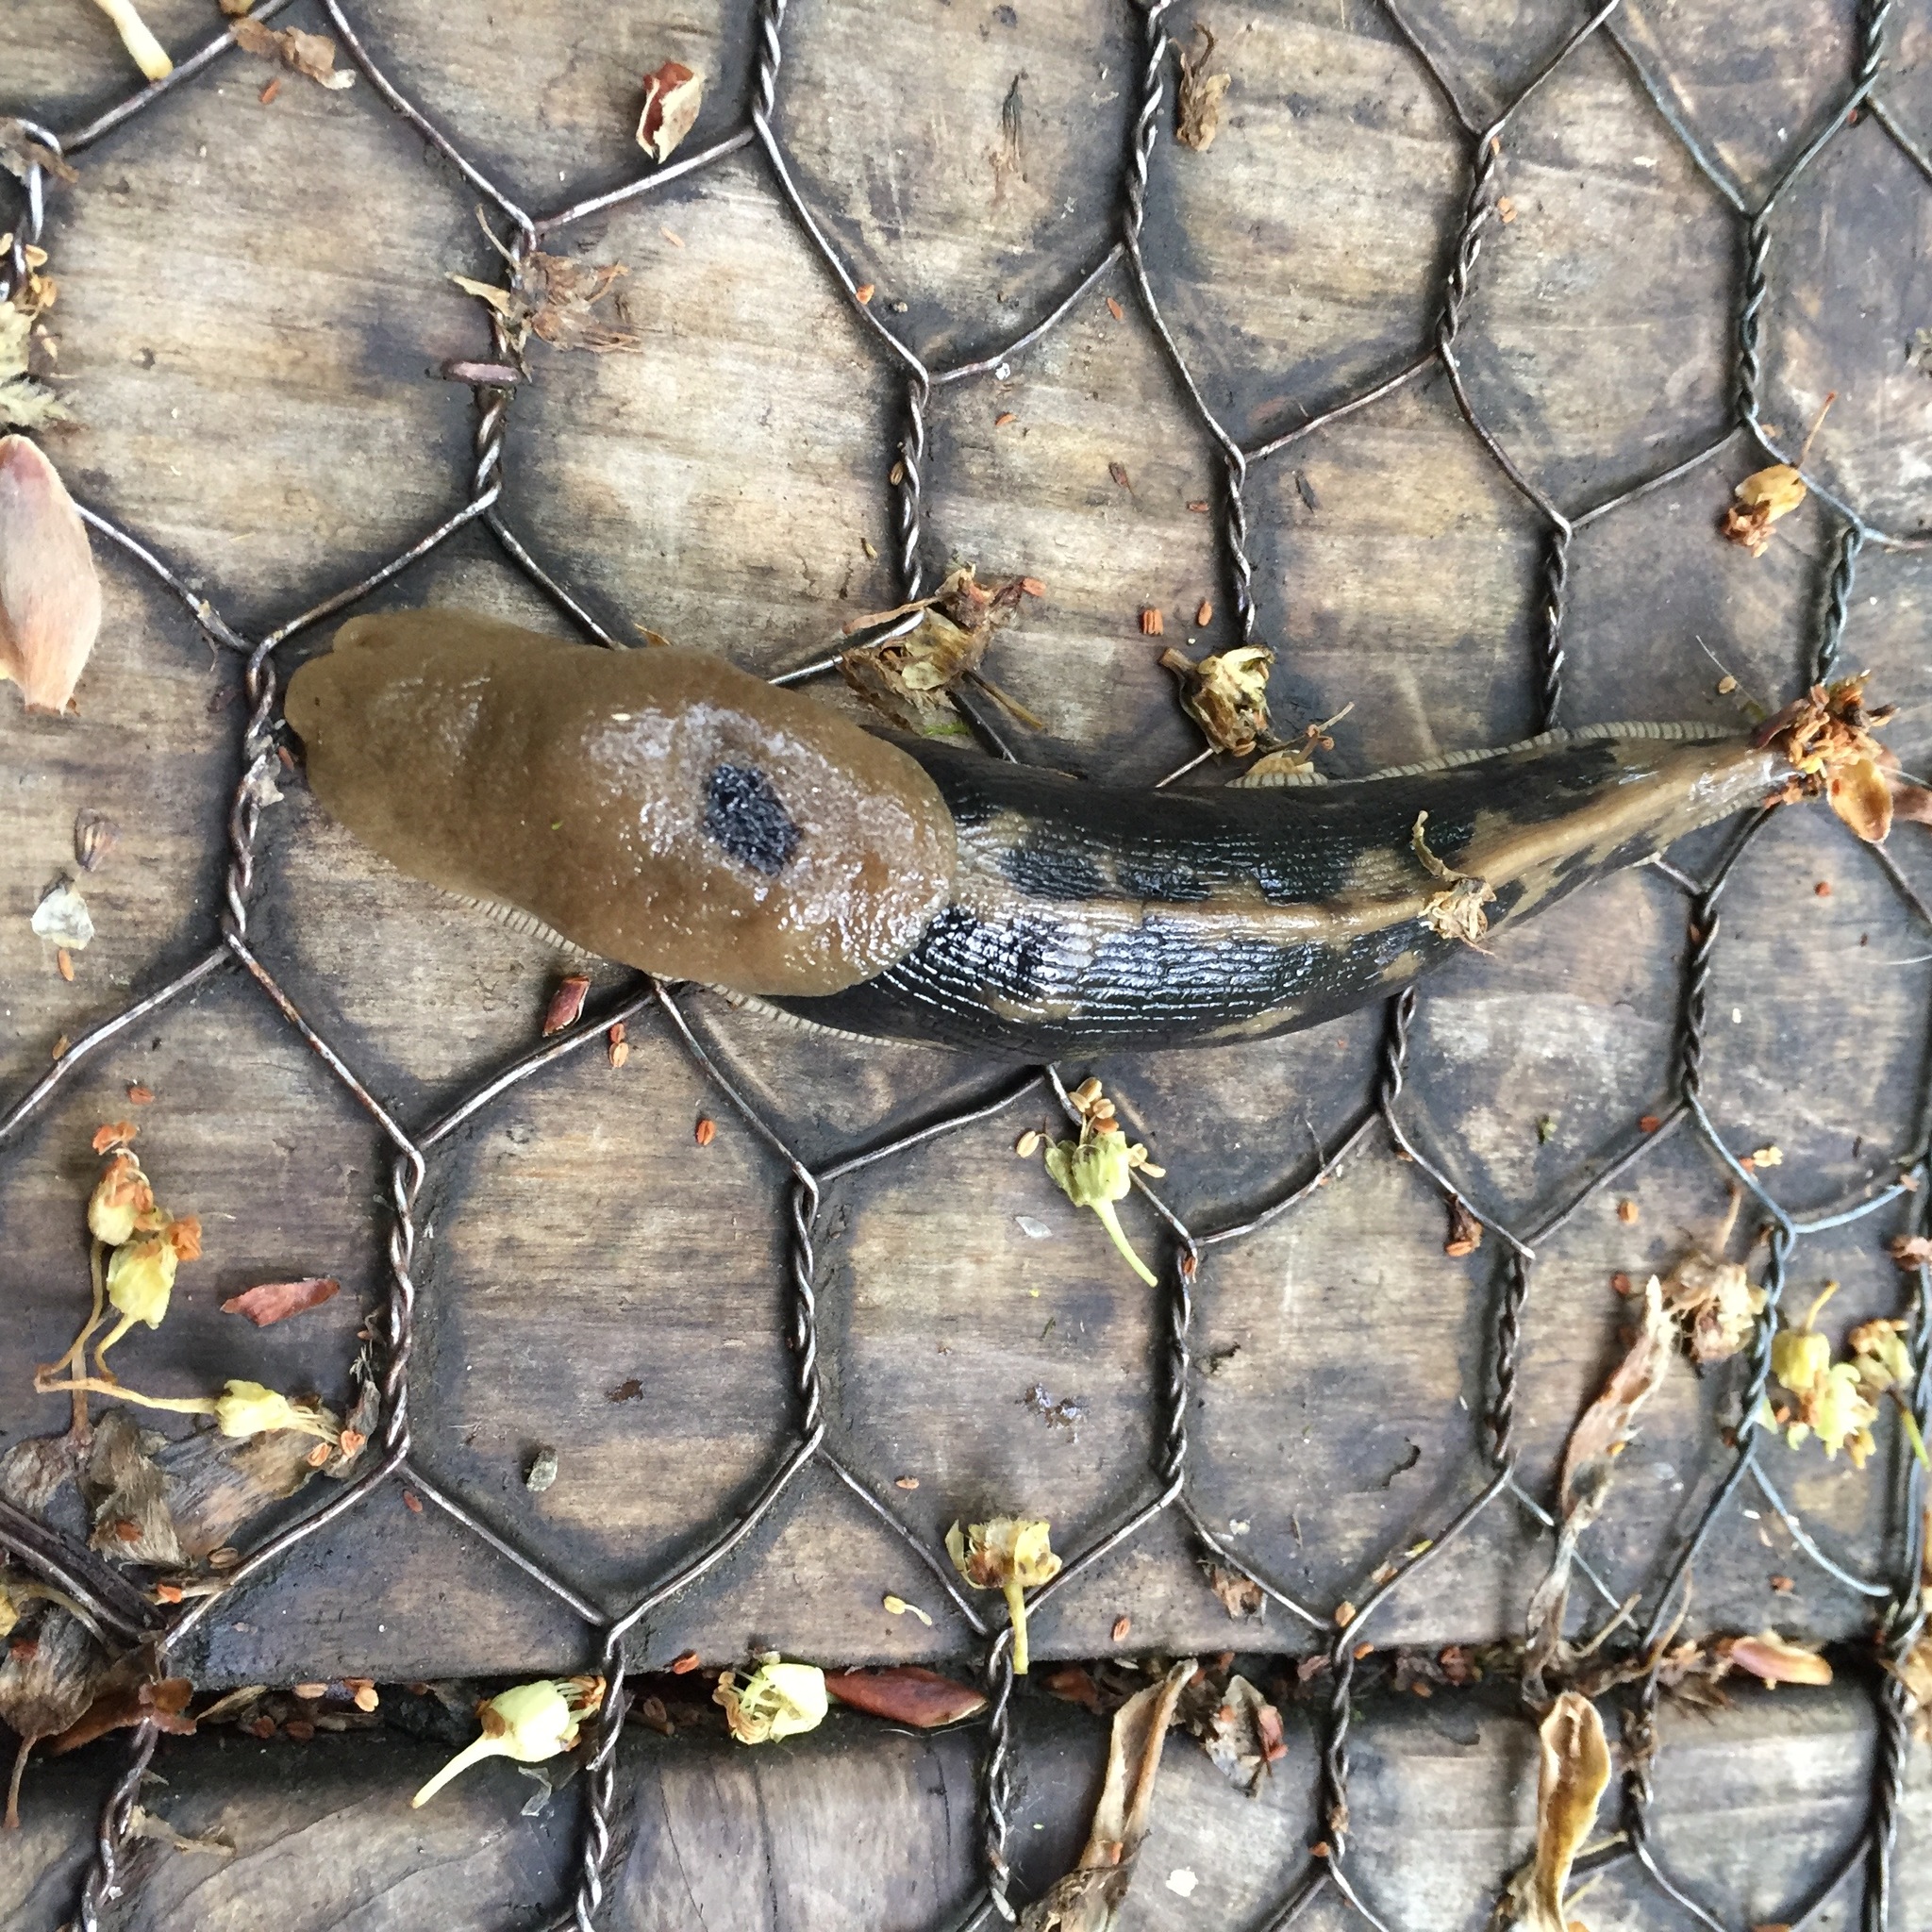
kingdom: Animalia
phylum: Mollusca
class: Gastropoda
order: Stylommatophora
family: Ariolimacidae
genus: Ariolimax
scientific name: Ariolimax columbianus
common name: Pacific banana slug
